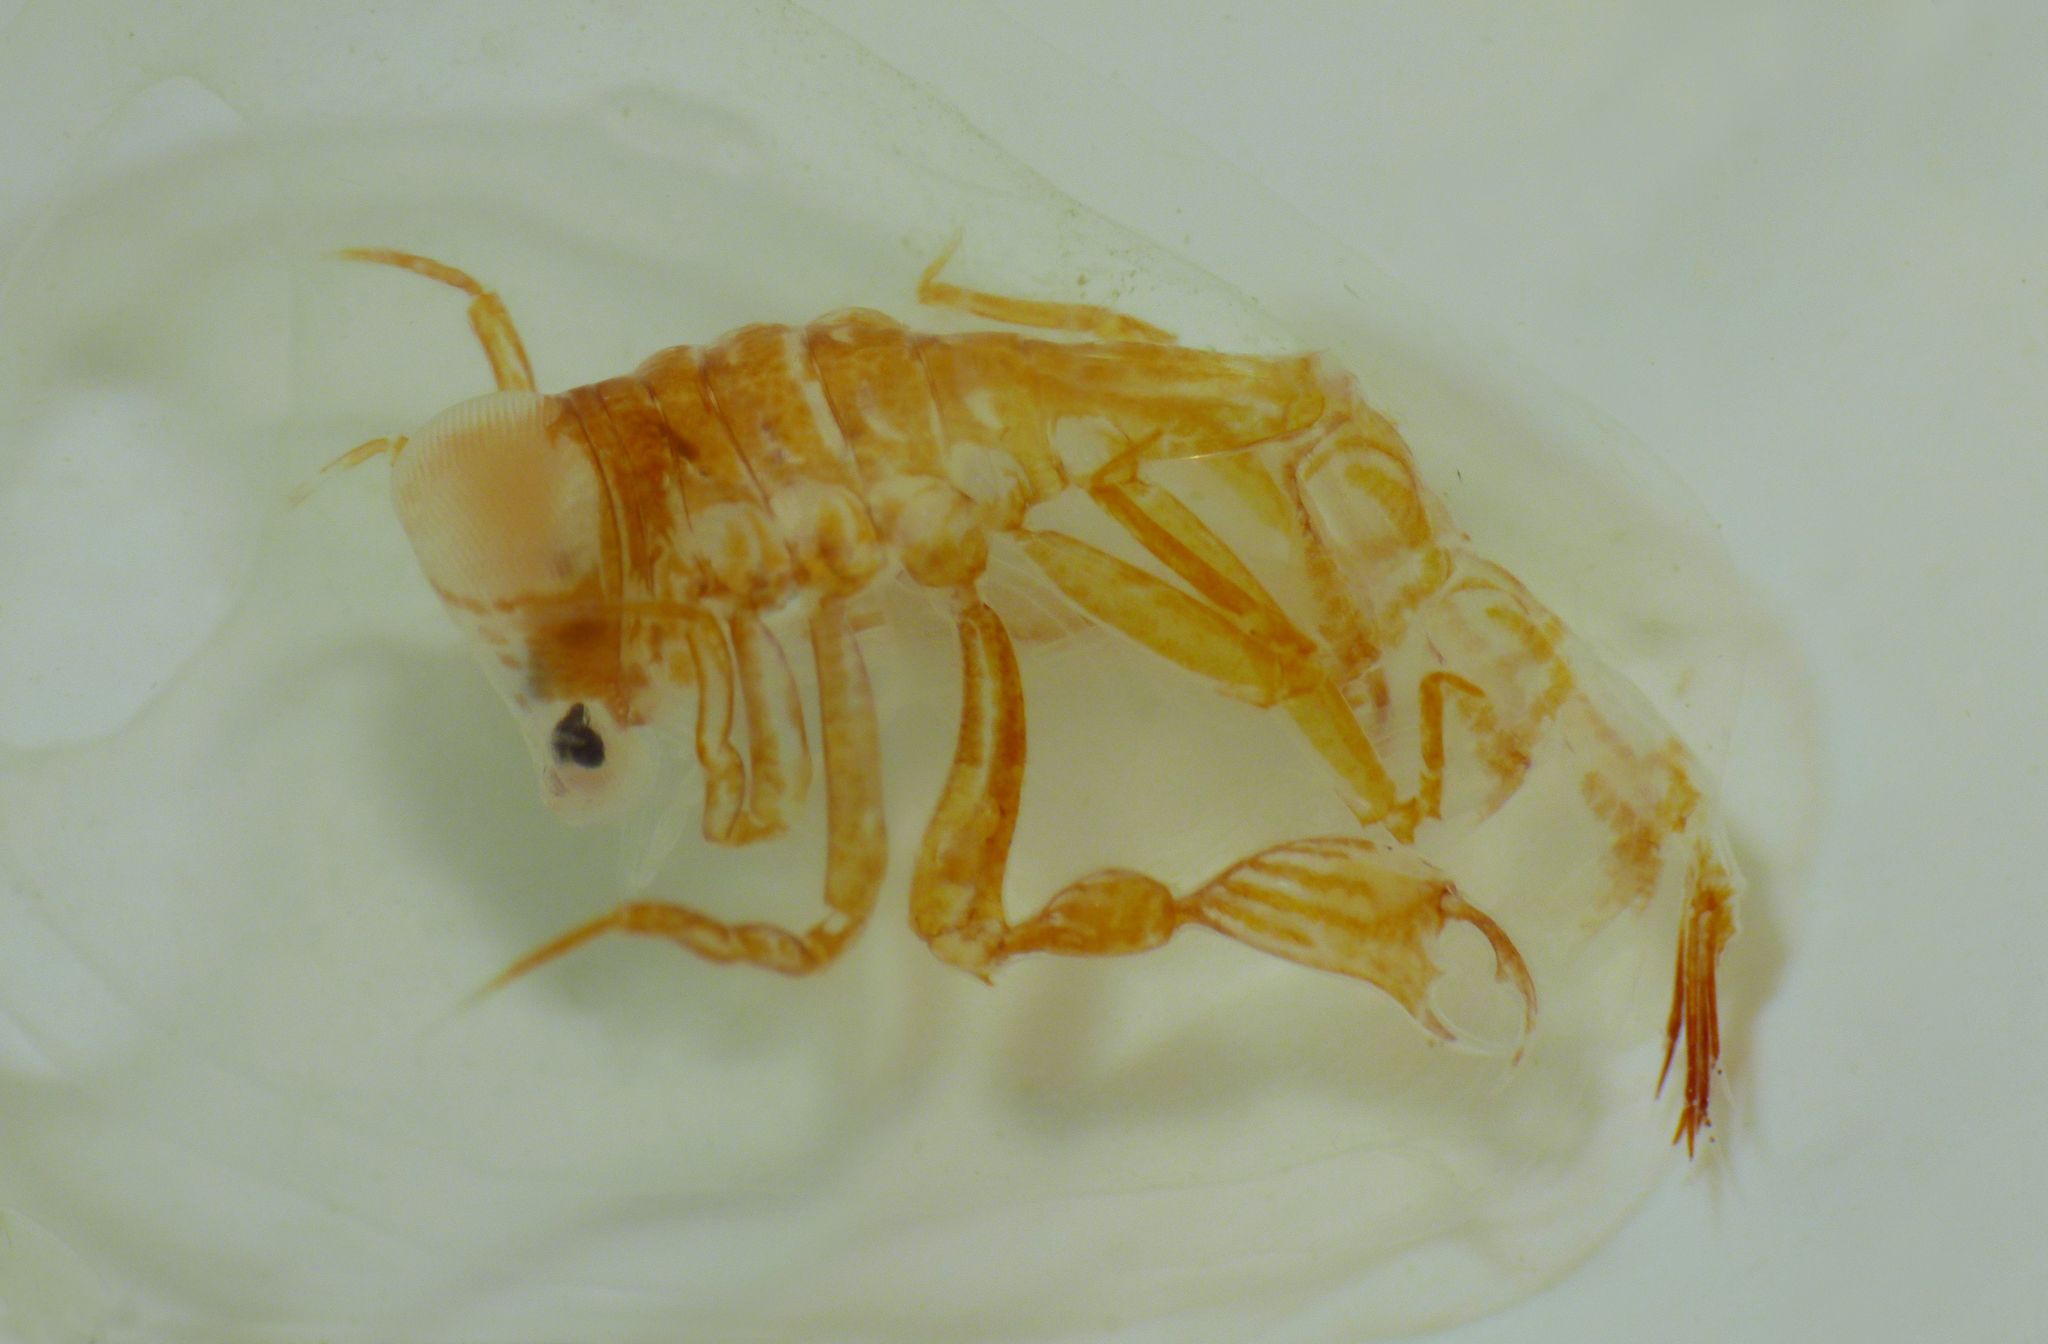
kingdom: Animalia
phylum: Arthropoda
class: Malacostraca
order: Amphipoda
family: Phronimidae
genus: Phronima
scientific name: Phronima sedentaria
